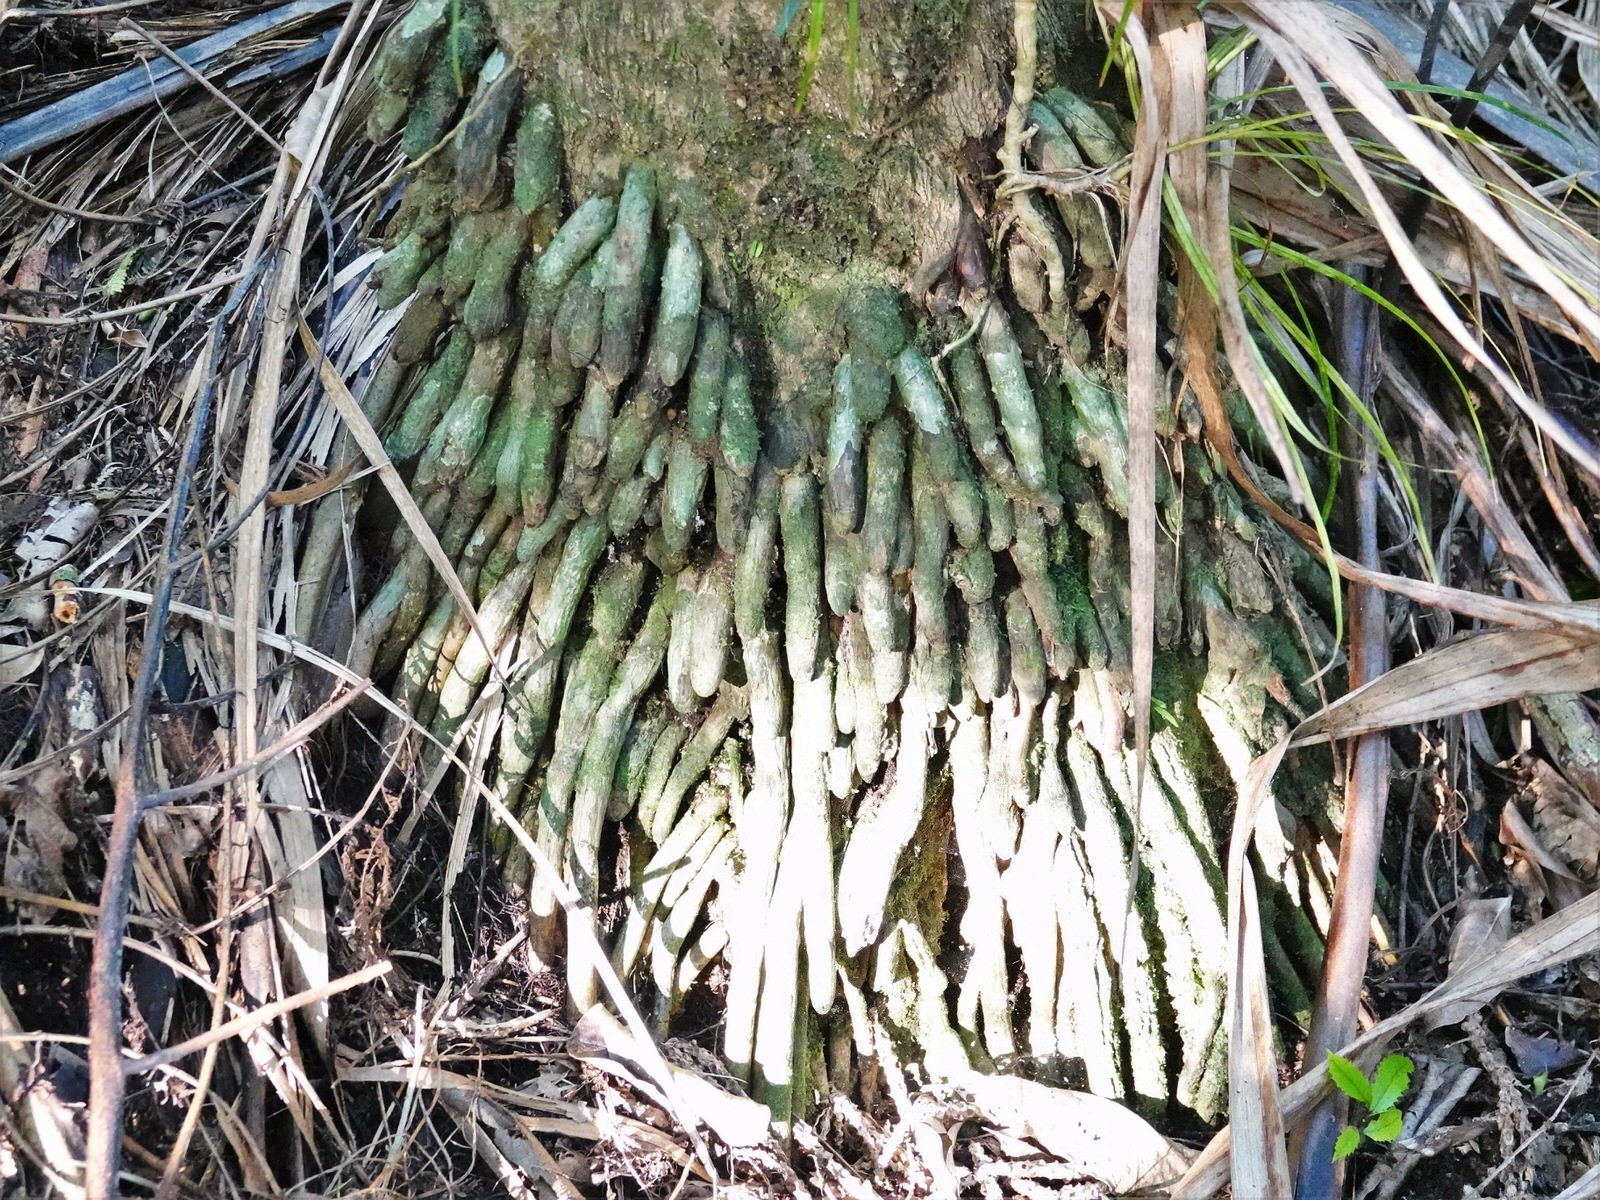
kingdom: Plantae
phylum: Tracheophyta
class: Liliopsida
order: Arecales
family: Arecaceae
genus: Rhopalostylis
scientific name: Rhopalostylis sapida
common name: Feather-duster palm
